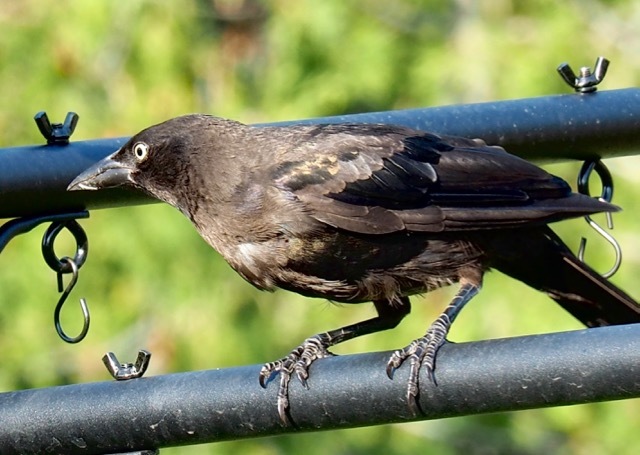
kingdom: Animalia
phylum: Chordata
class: Aves
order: Passeriformes
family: Icteridae
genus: Quiscalus
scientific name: Quiscalus quiscula
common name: Common grackle
